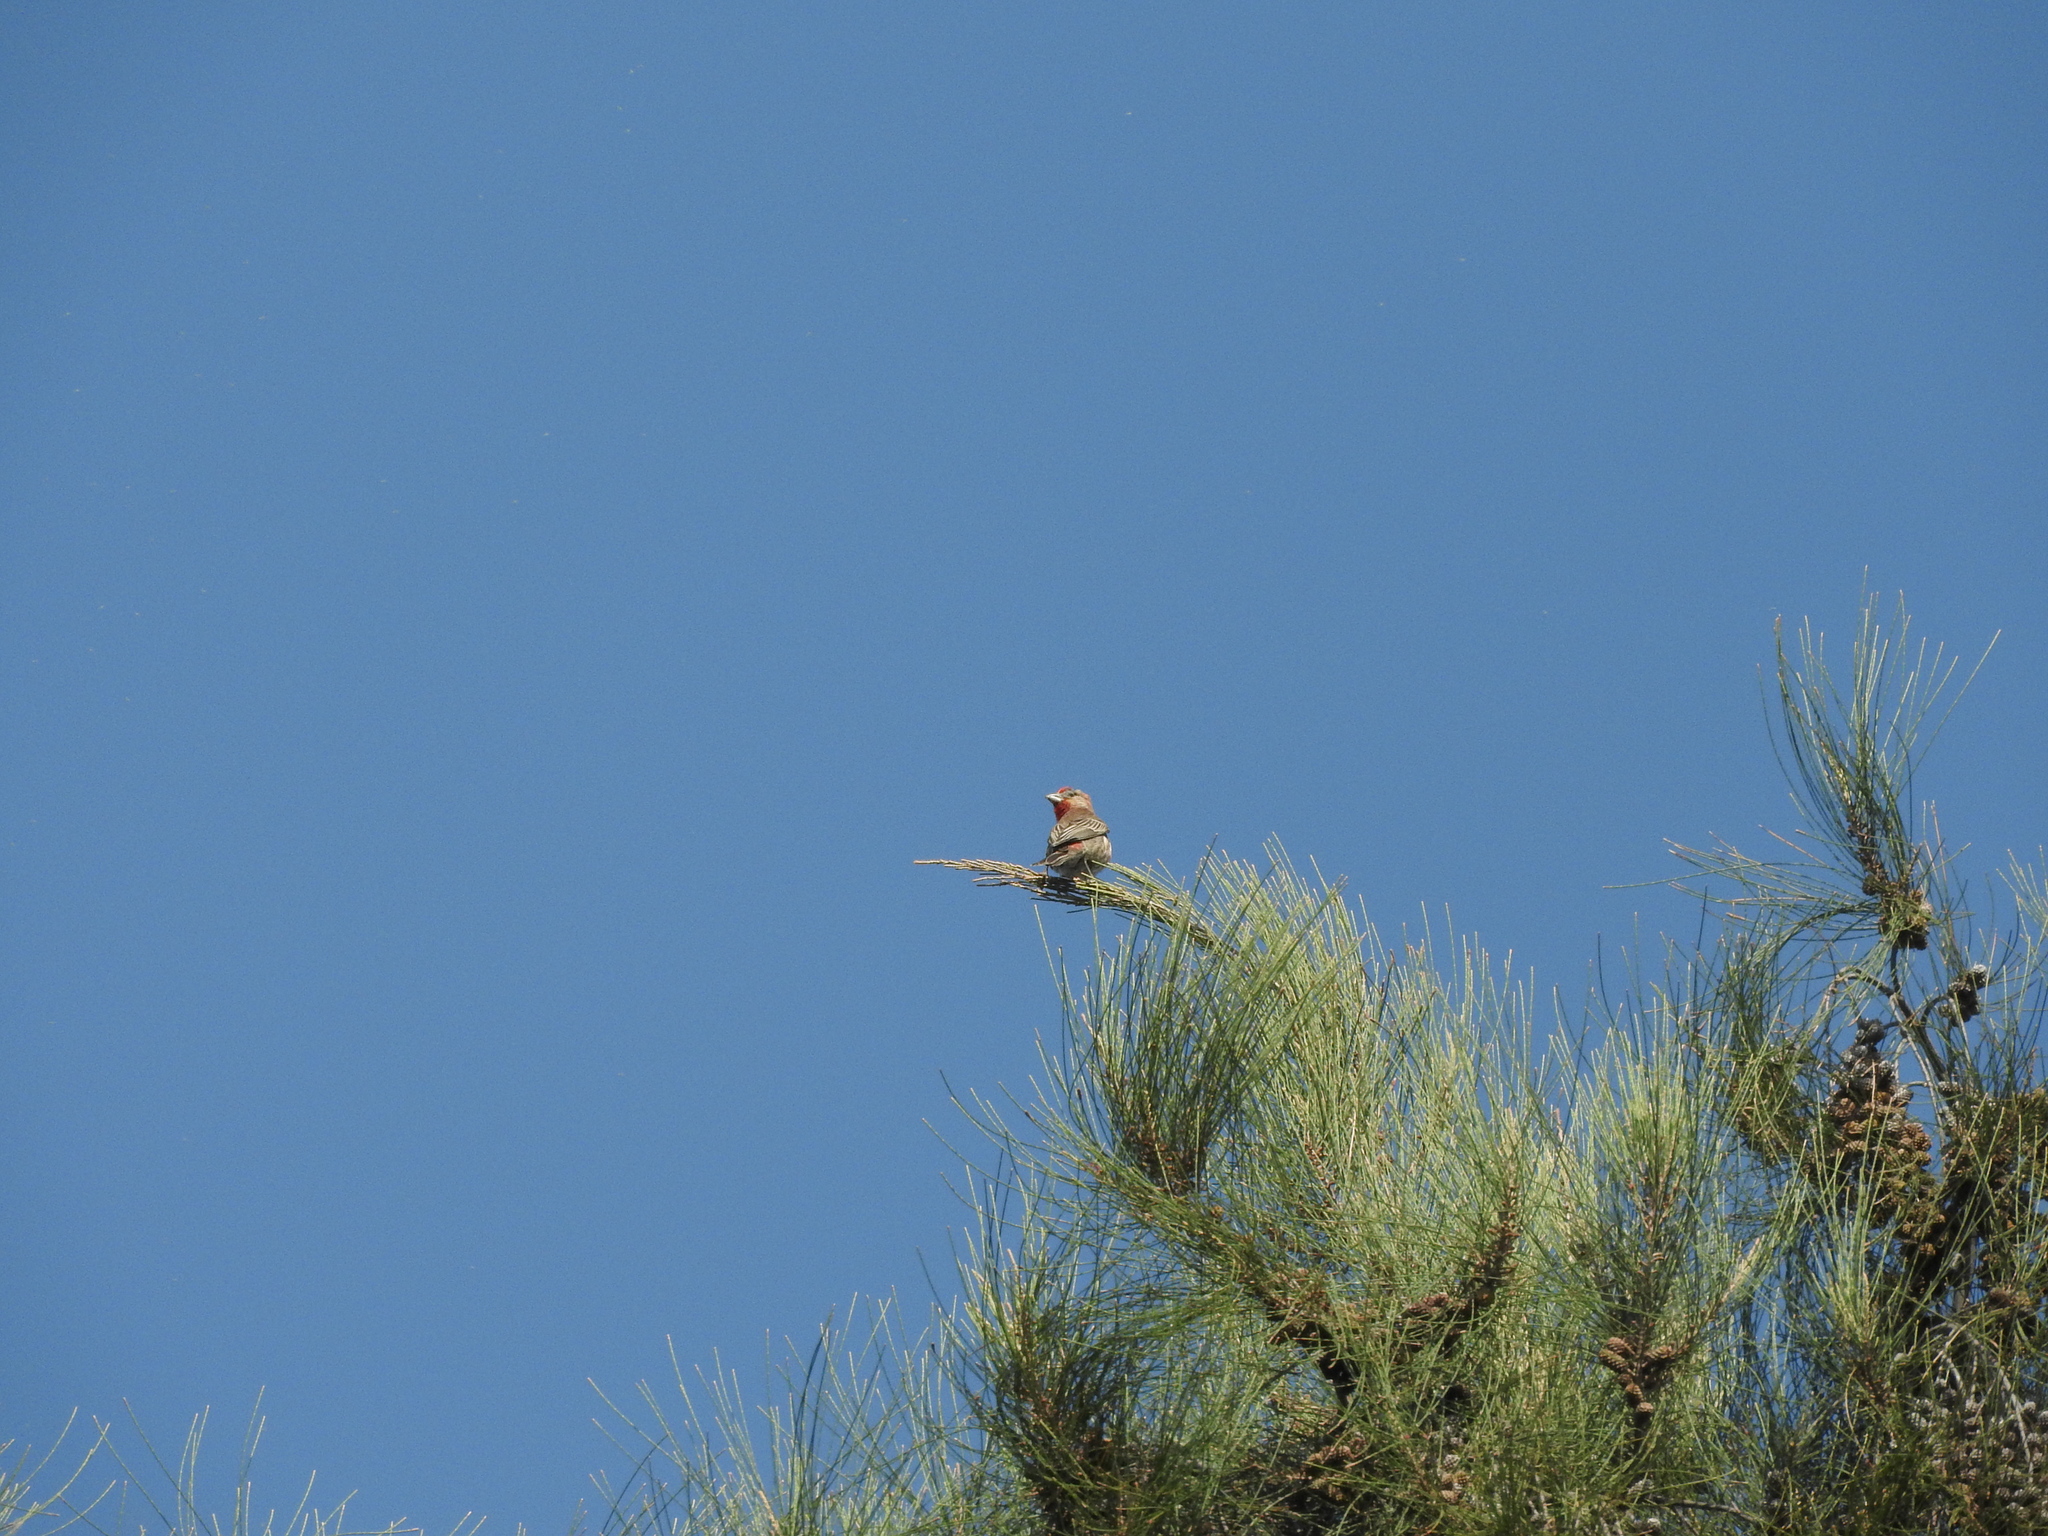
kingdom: Animalia
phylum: Chordata
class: Aves
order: Passeriformes
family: Fringillidae
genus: Haemorhous
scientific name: Haemorhous mexicanus
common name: House finch
